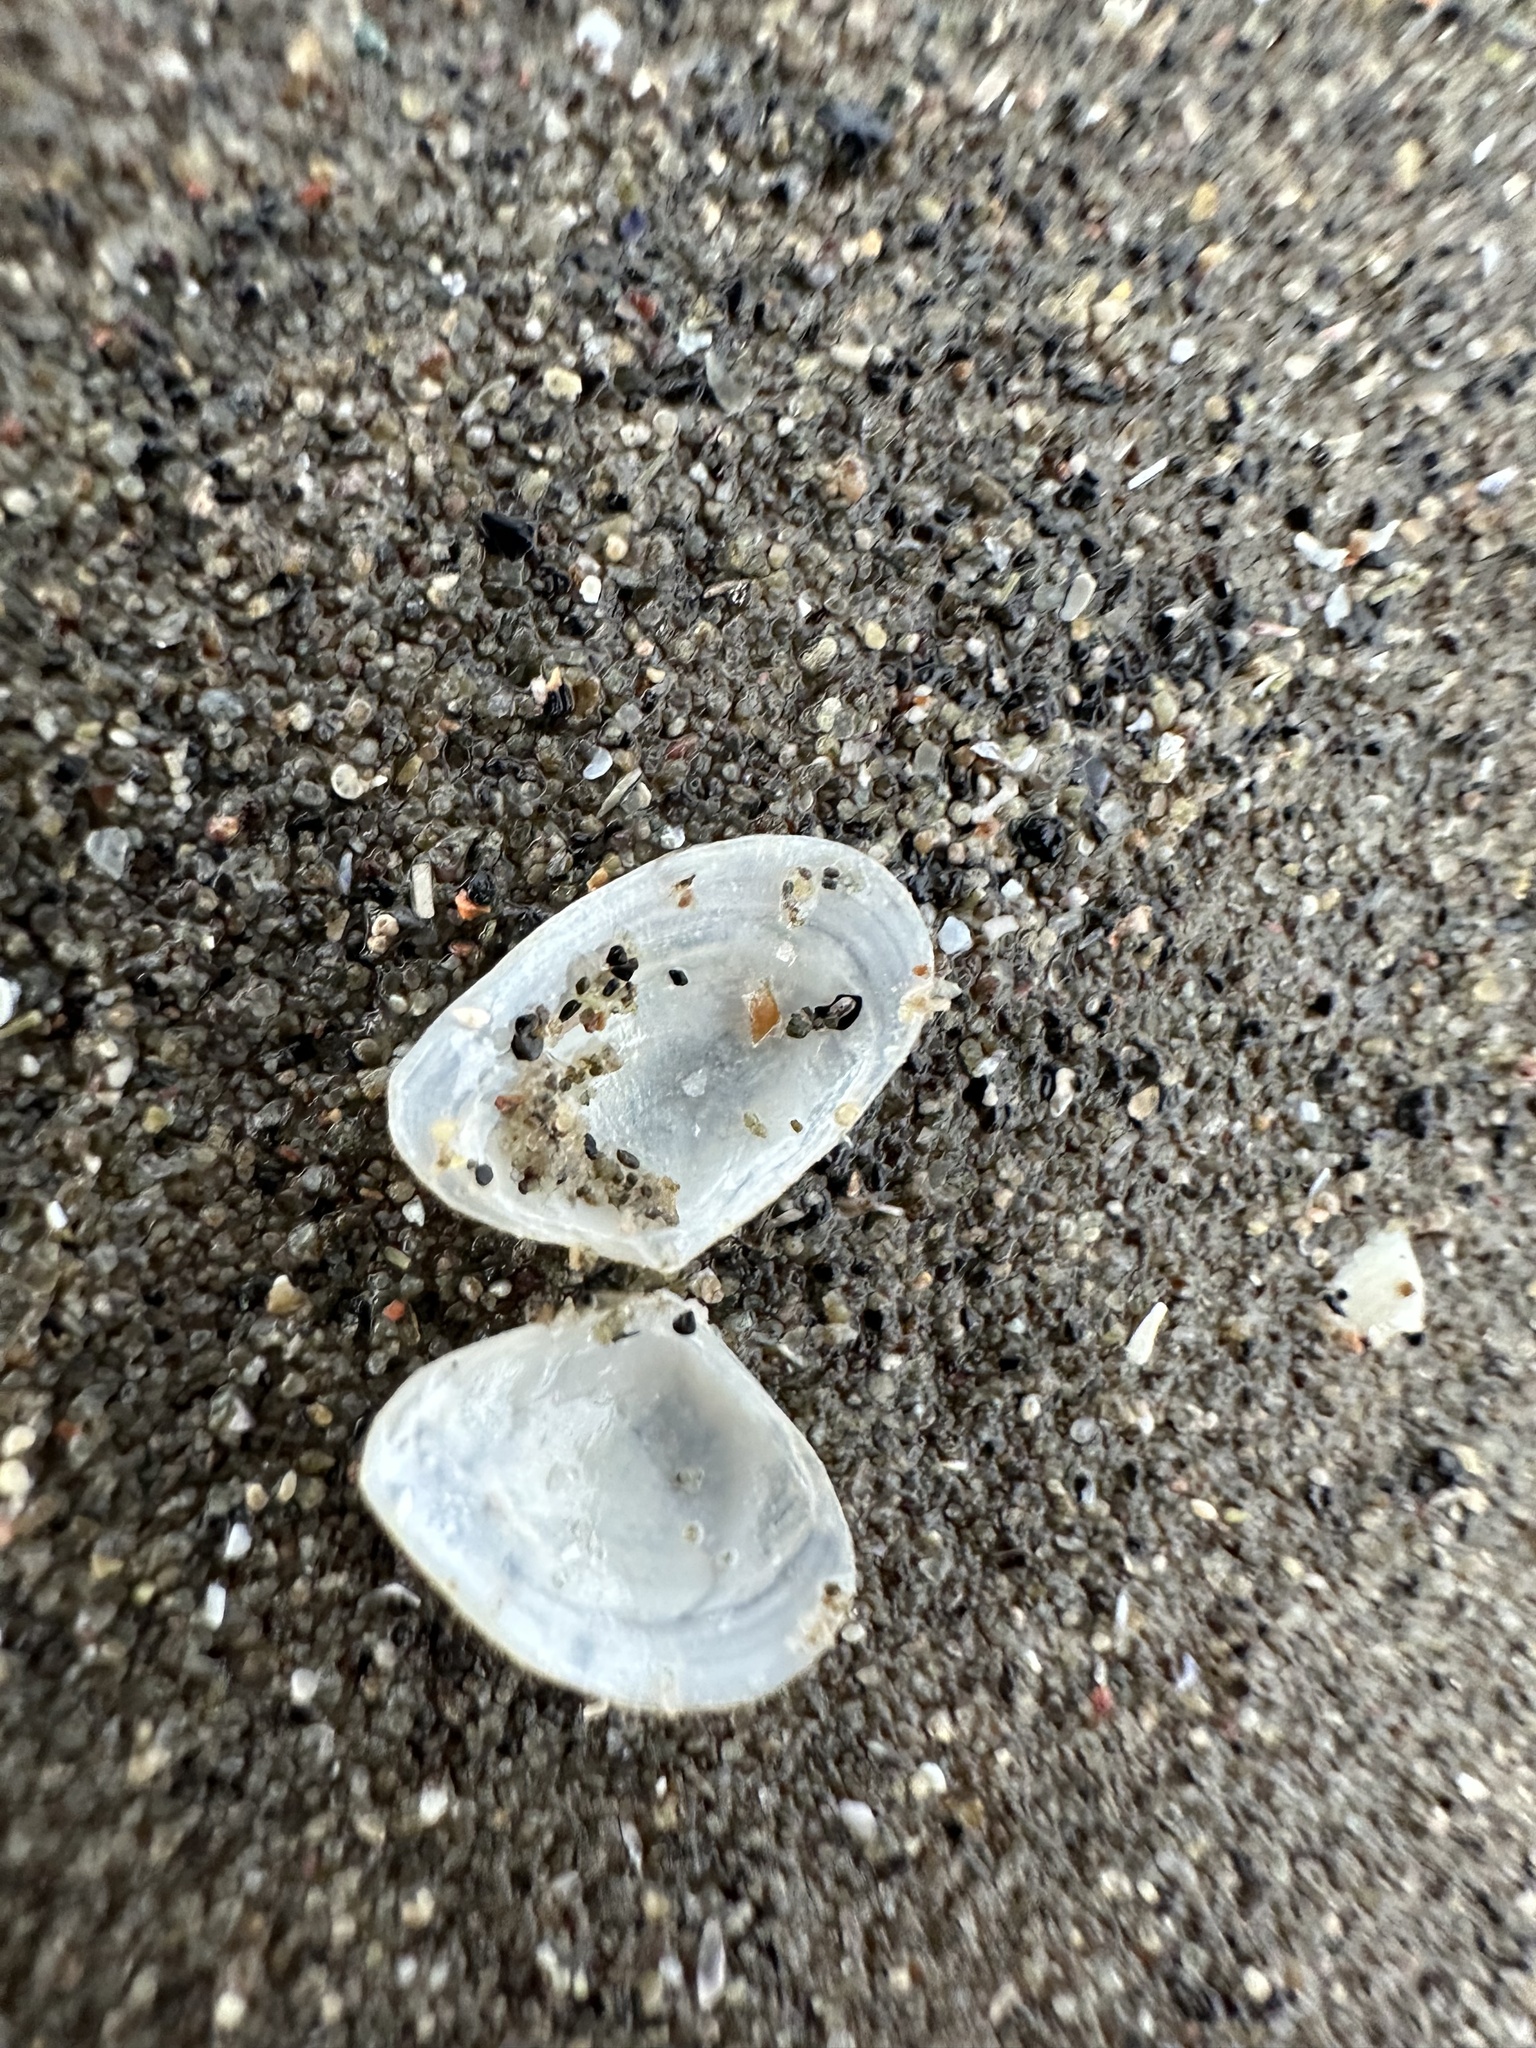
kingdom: Animalia
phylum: Mollusca
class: Bivalvia
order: Cardiida
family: Tellinidae
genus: Ameritella
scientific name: Ameritella agilis
